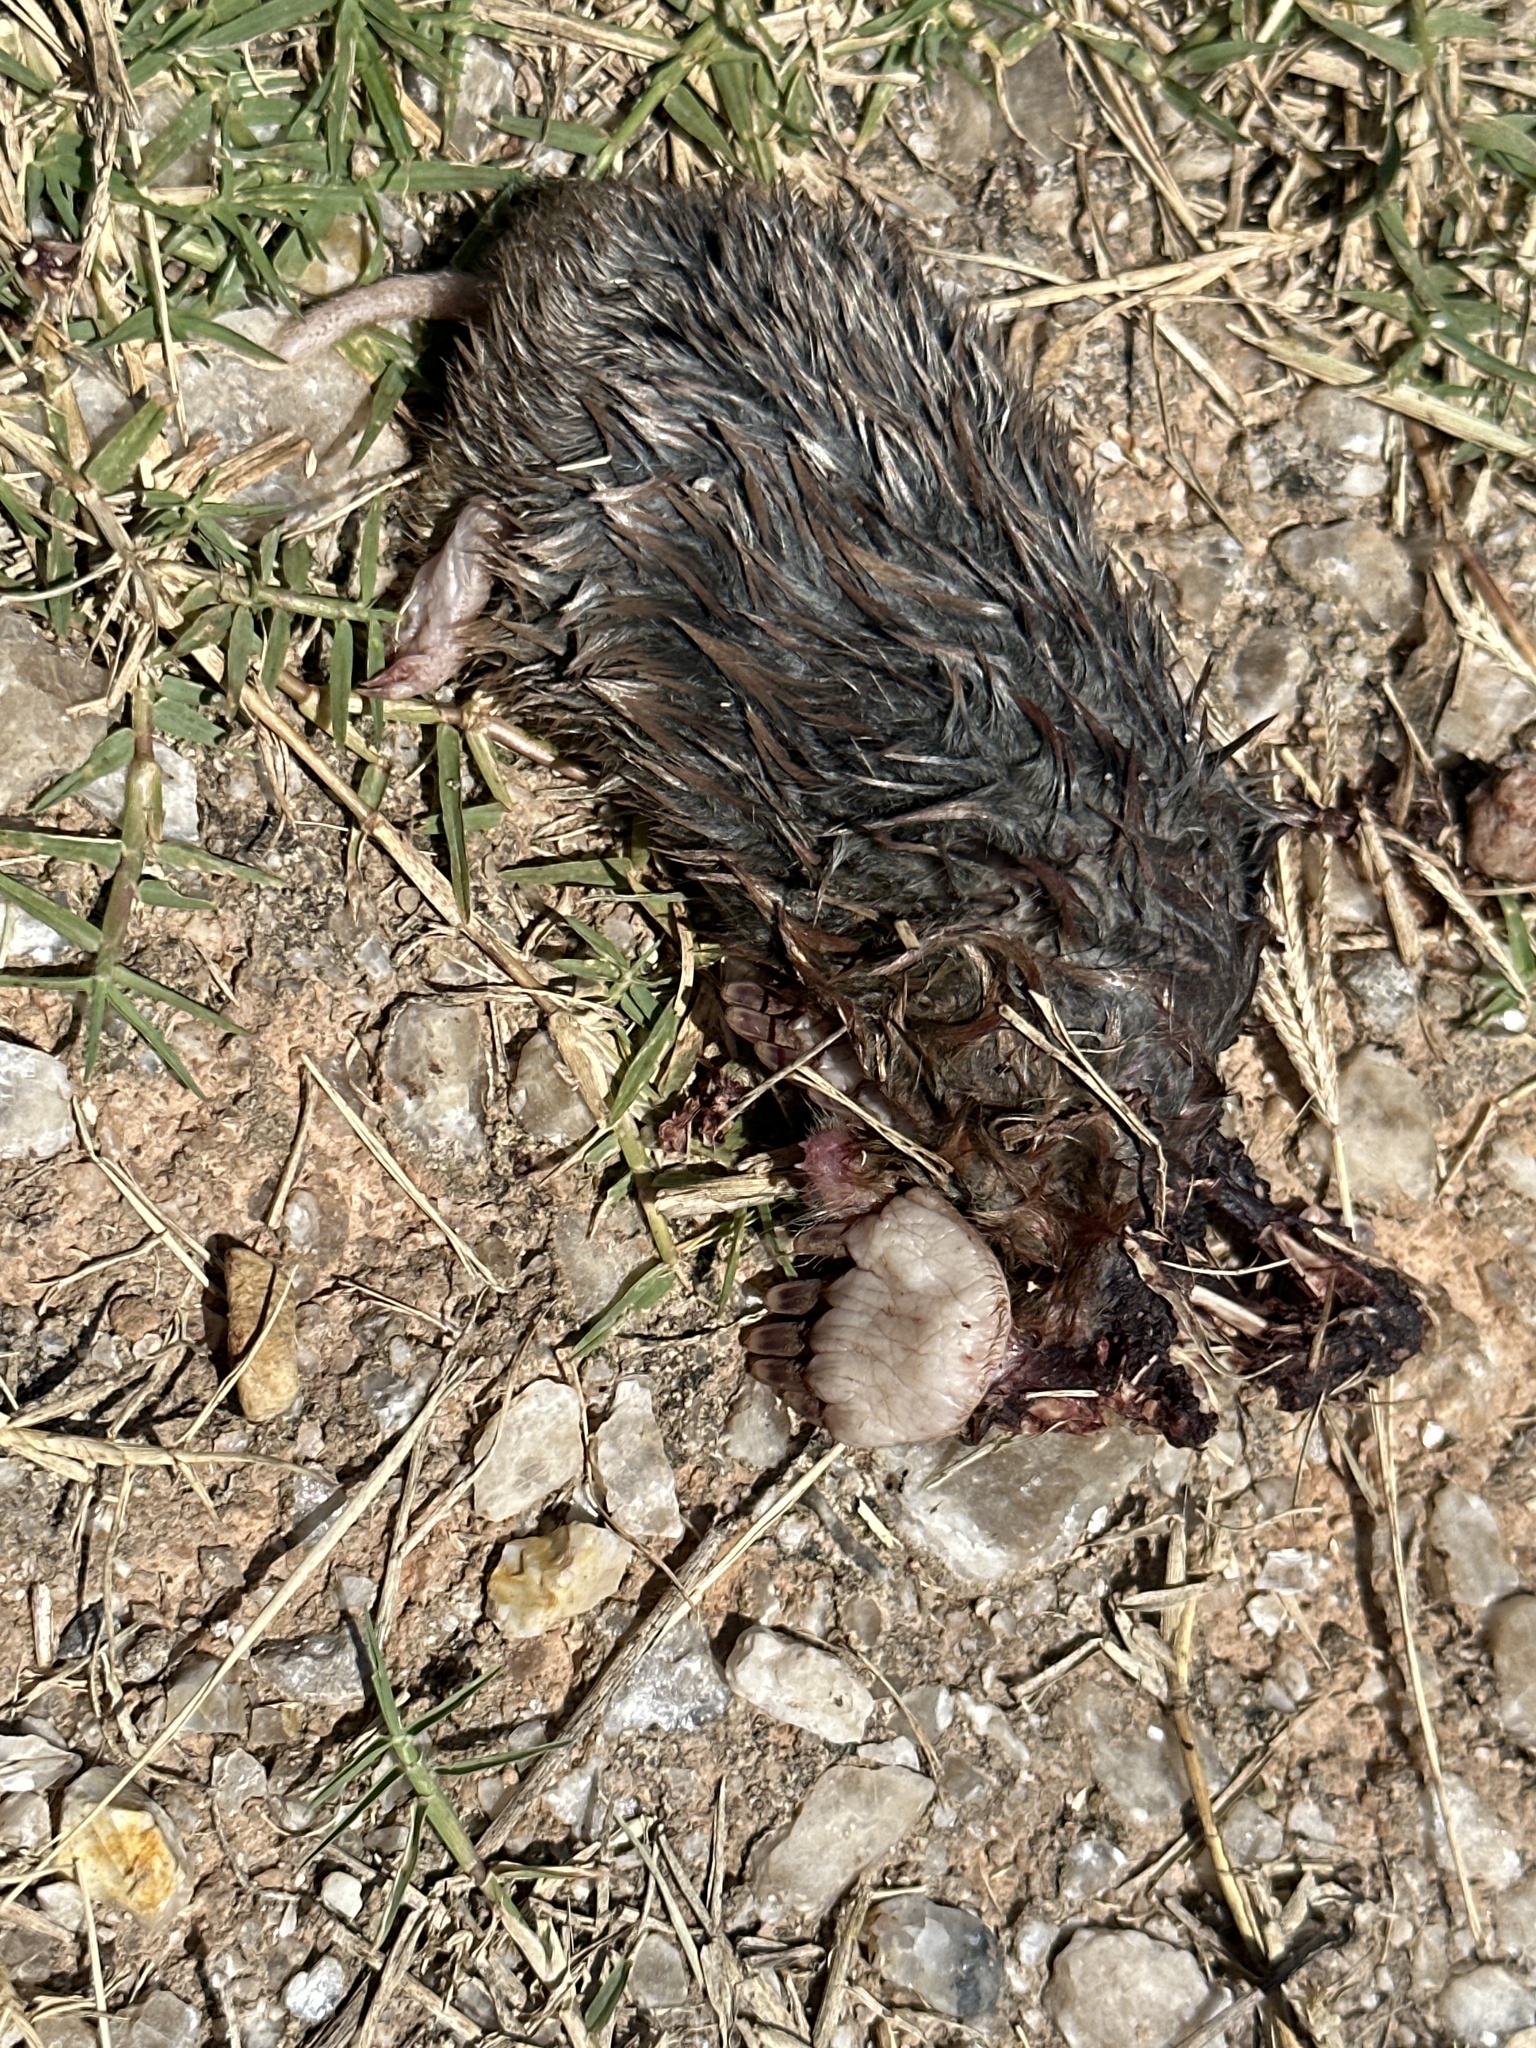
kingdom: Animalia
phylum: Chordata
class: Mammalia
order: Soricomorpha
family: Talpidae
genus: Scalopus
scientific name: Scalopus aquaticus
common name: Eastern mole
